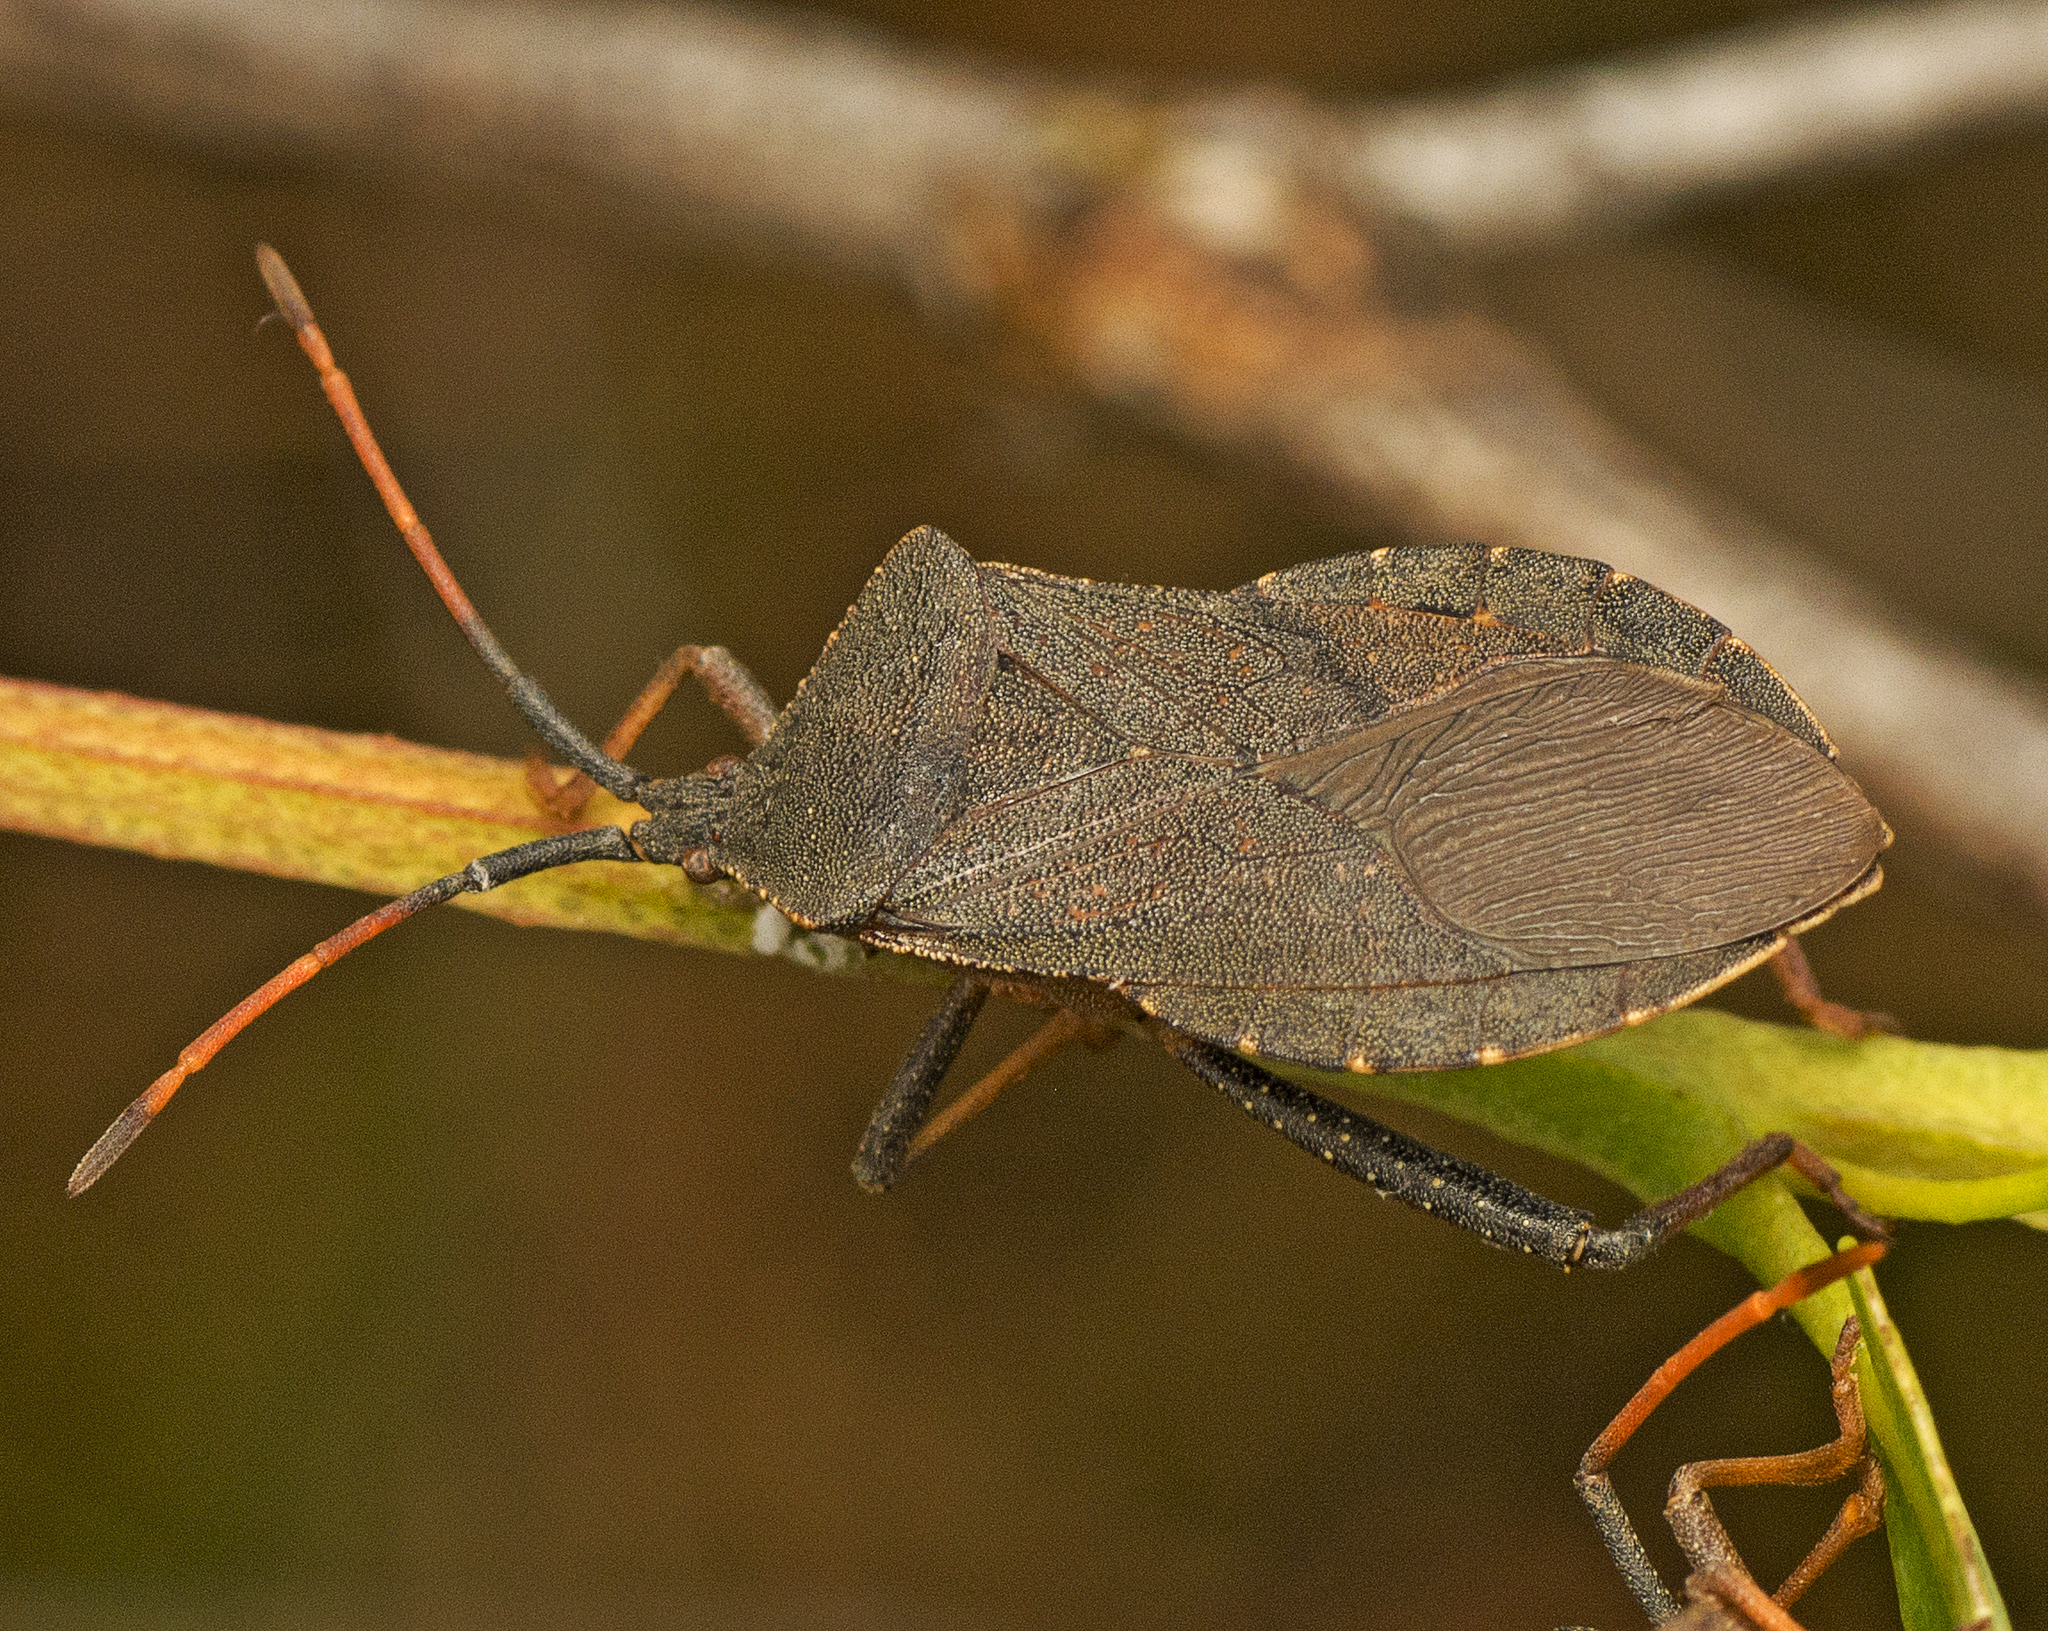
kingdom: Animalia
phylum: Arthropoda
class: Insecta
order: Hemiptera
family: Coreidae
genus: Amorbus
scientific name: Amorbus rubiginosus
